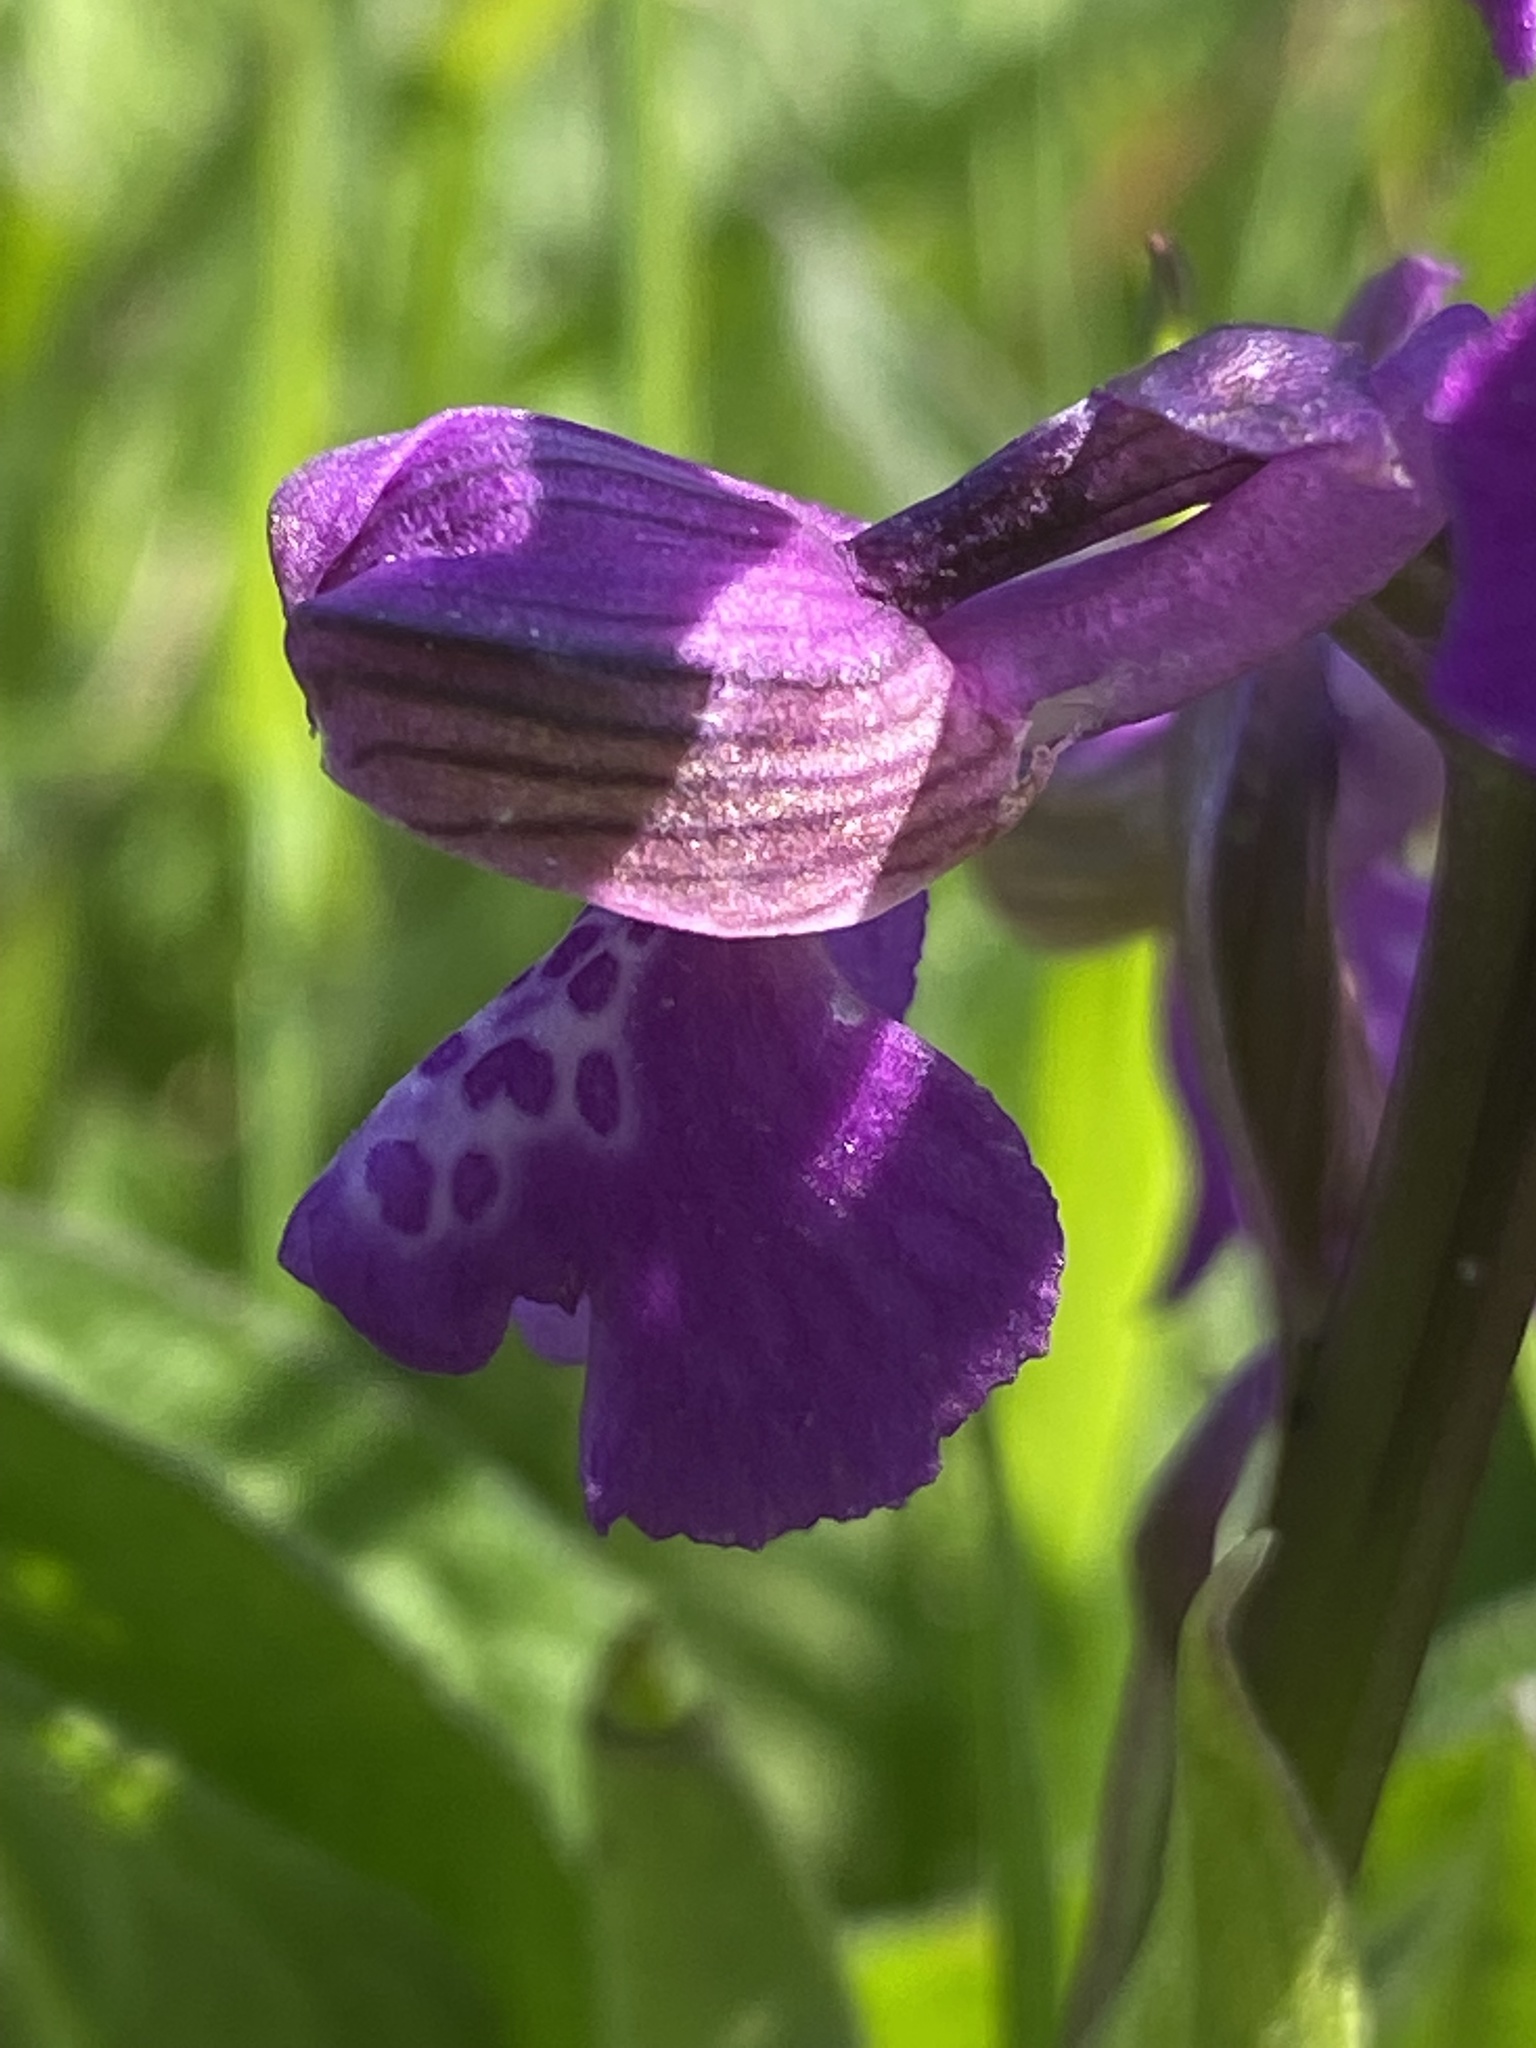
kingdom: Plantae
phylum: Tracheophyta
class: Liliopsida
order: Asparagales
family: Orchidaceae
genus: Anacamptis
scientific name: Anacamptis morio
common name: Green-winged orchid
